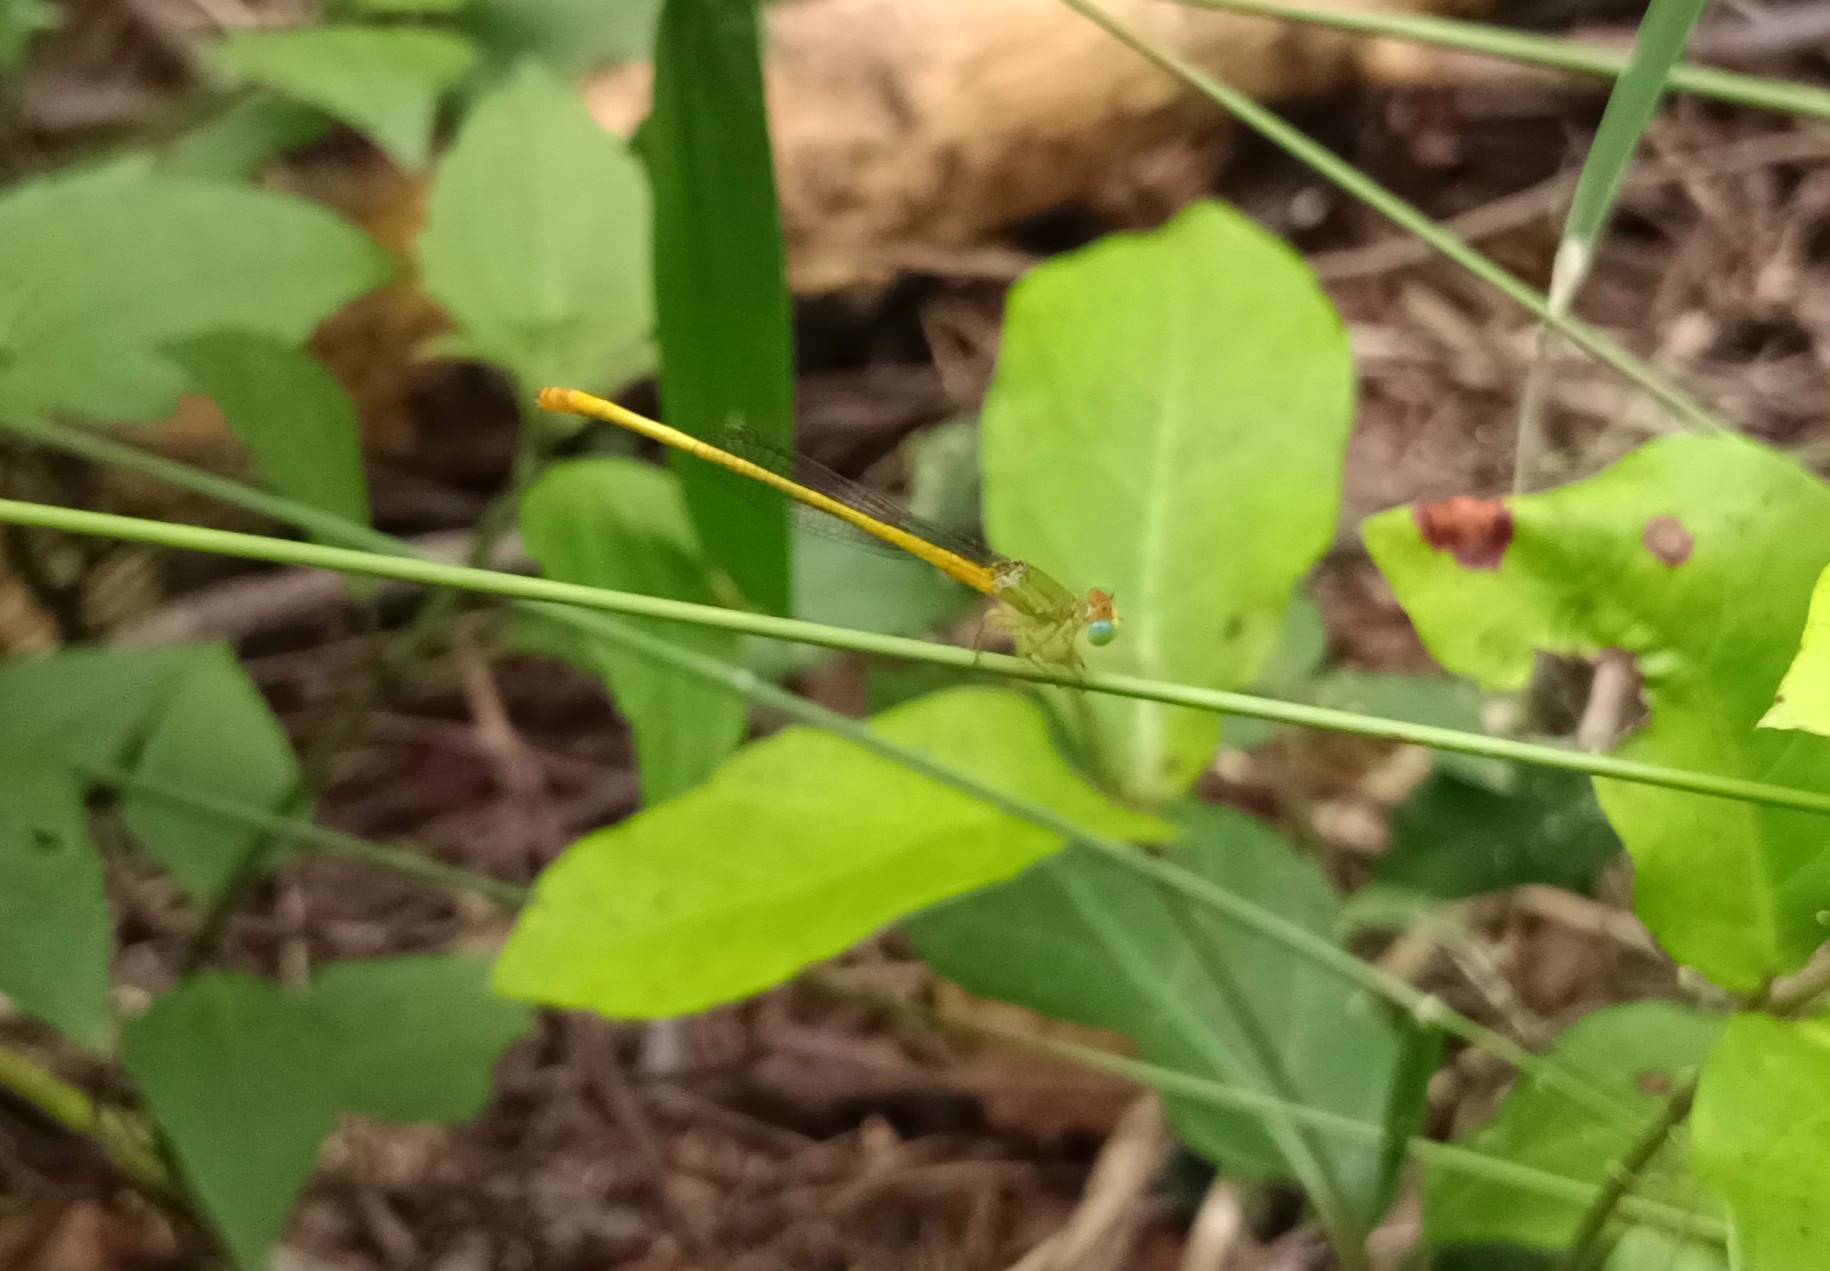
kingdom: Animalia
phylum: Arthropoda
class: Insecta
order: Odonata
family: Coenagrionidae
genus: Ceriagrion
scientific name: Ceriagrion coromandelianum
